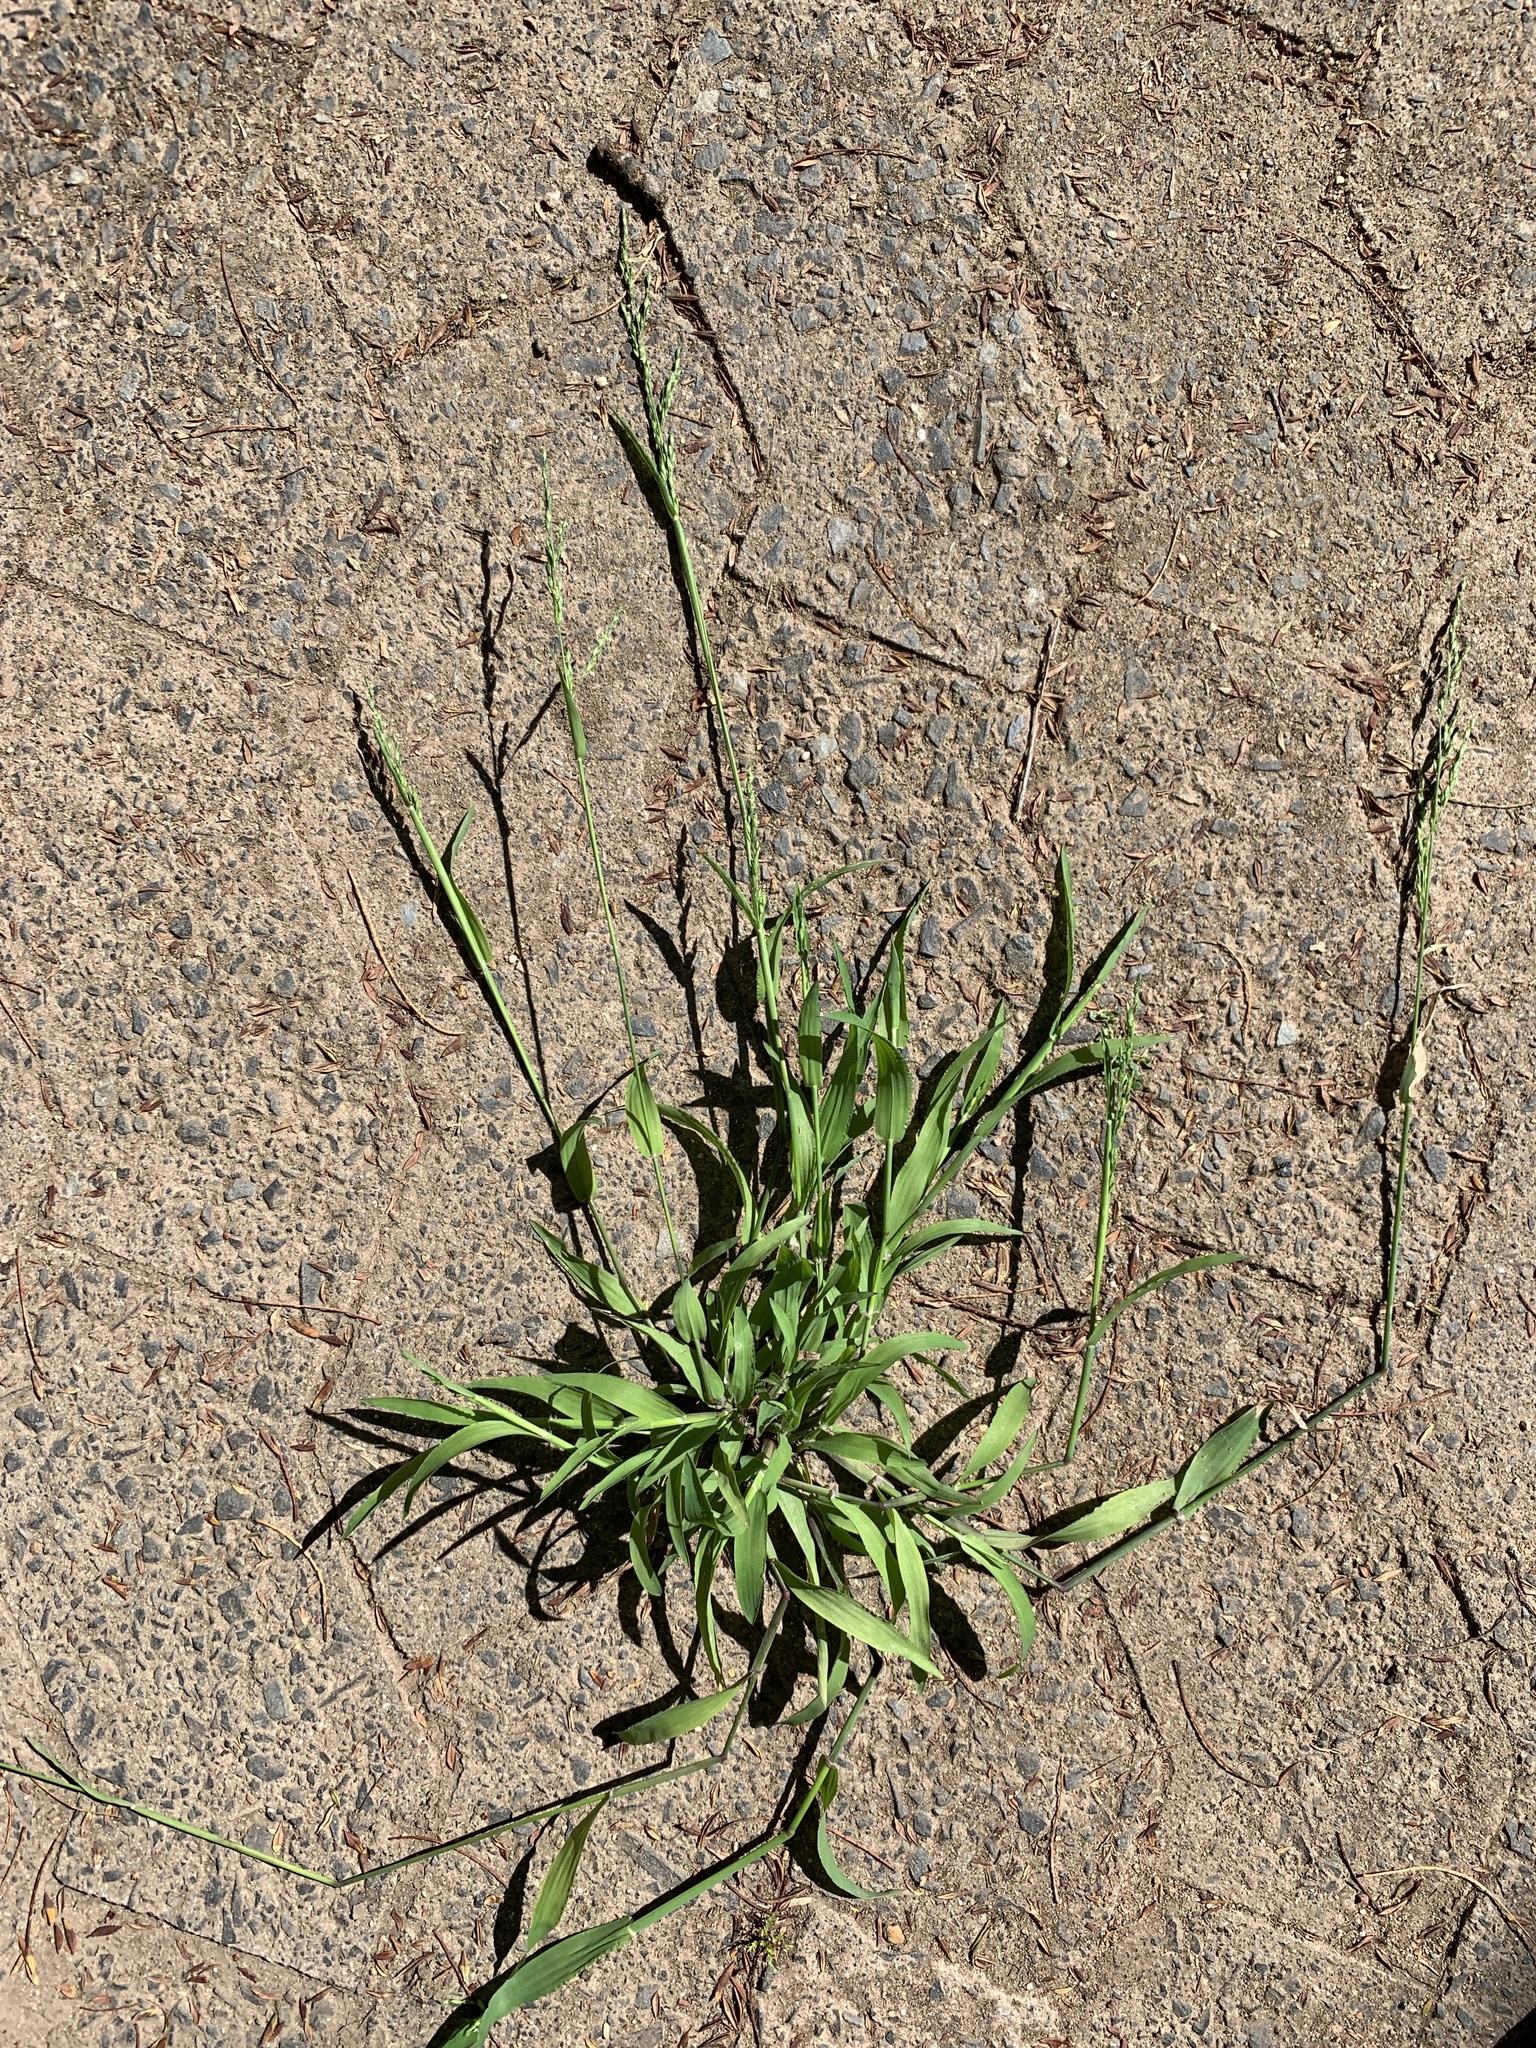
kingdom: Plantae
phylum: Tracheophyta
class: Liliopsida
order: Poales
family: Poaceae
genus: Ehrharta
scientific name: Ehrharta erecta
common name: Panic veldtgrass
